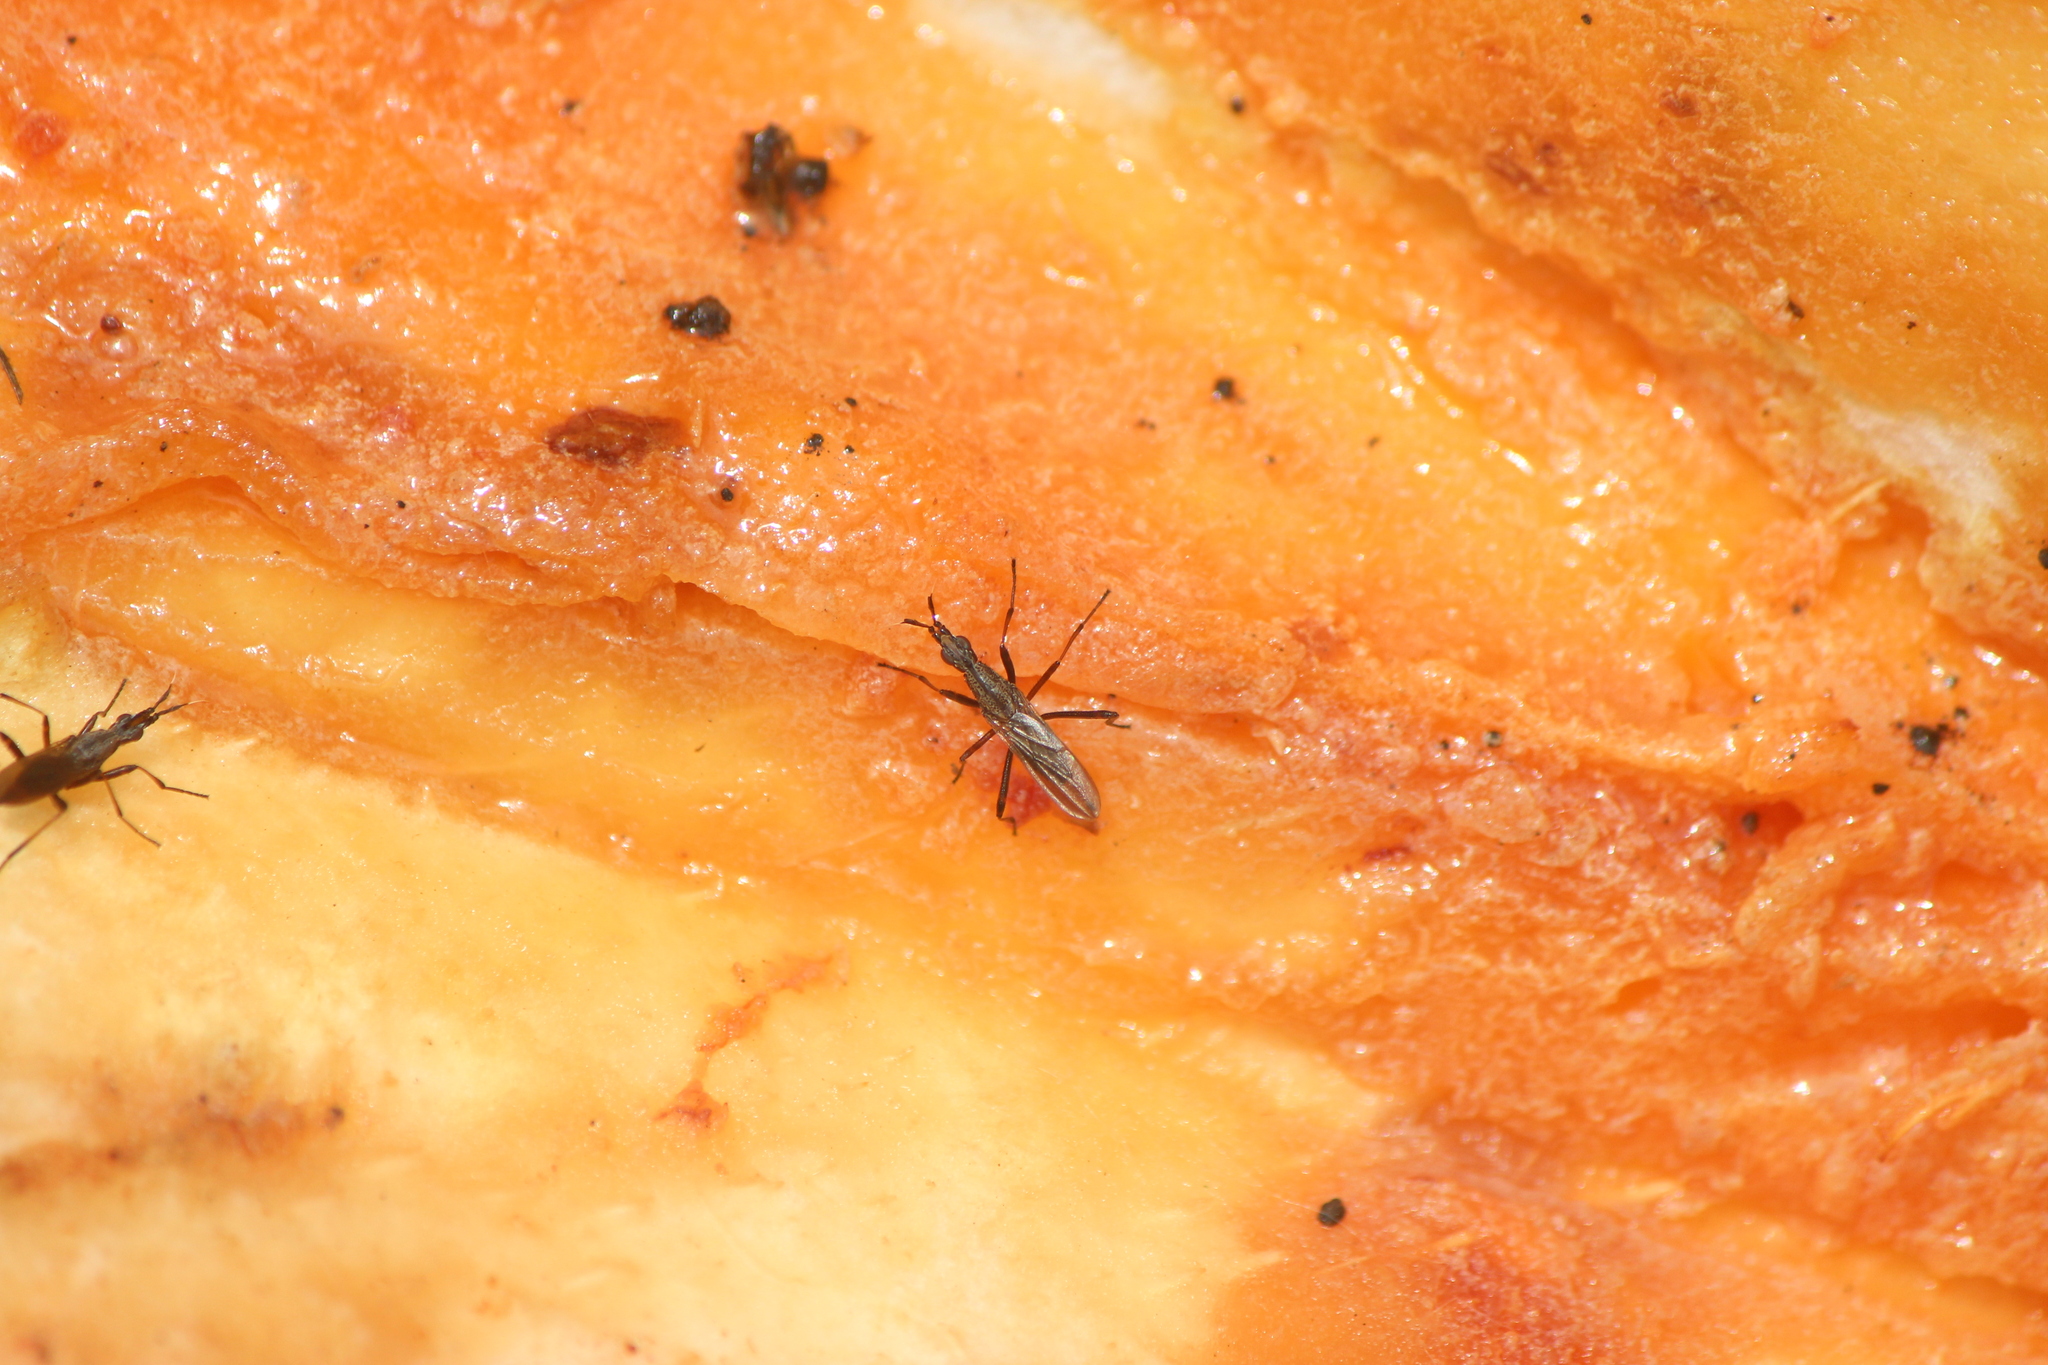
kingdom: Animalia
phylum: Arthropoda
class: Insecta
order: Diptera
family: Neriidae
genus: Odontoloxozus
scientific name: Odontoloxozus longicornis
